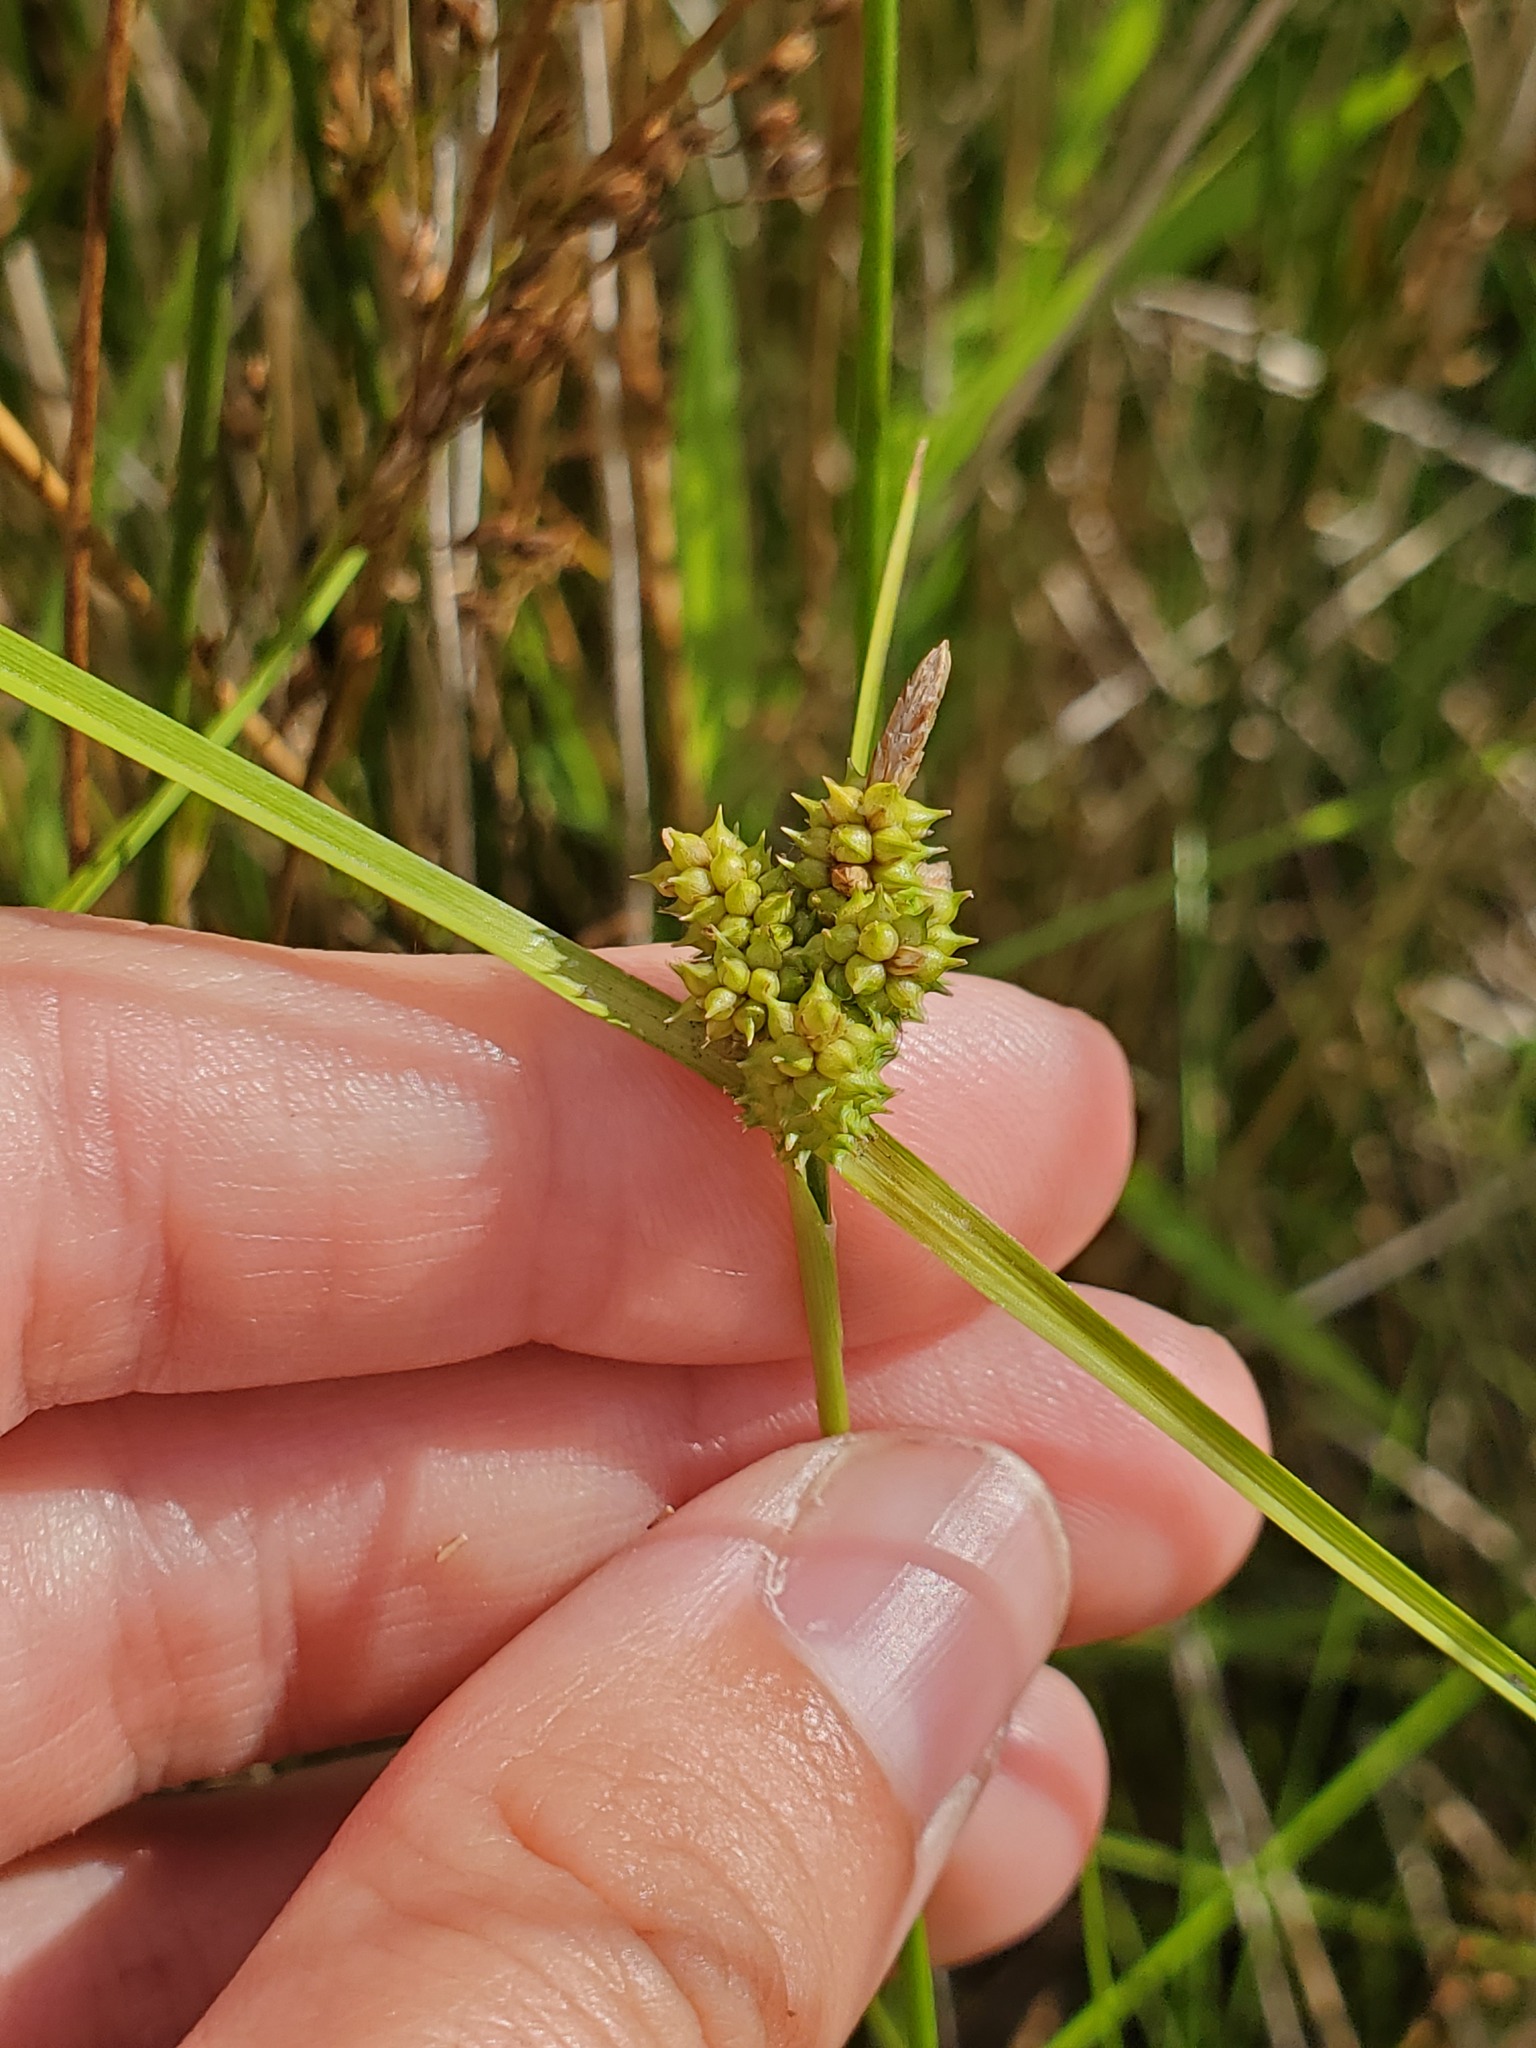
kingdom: Plantae
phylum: Tracheophyta
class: Liliopsida
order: Poales
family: Cyperaceae
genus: Carex
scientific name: Carex
